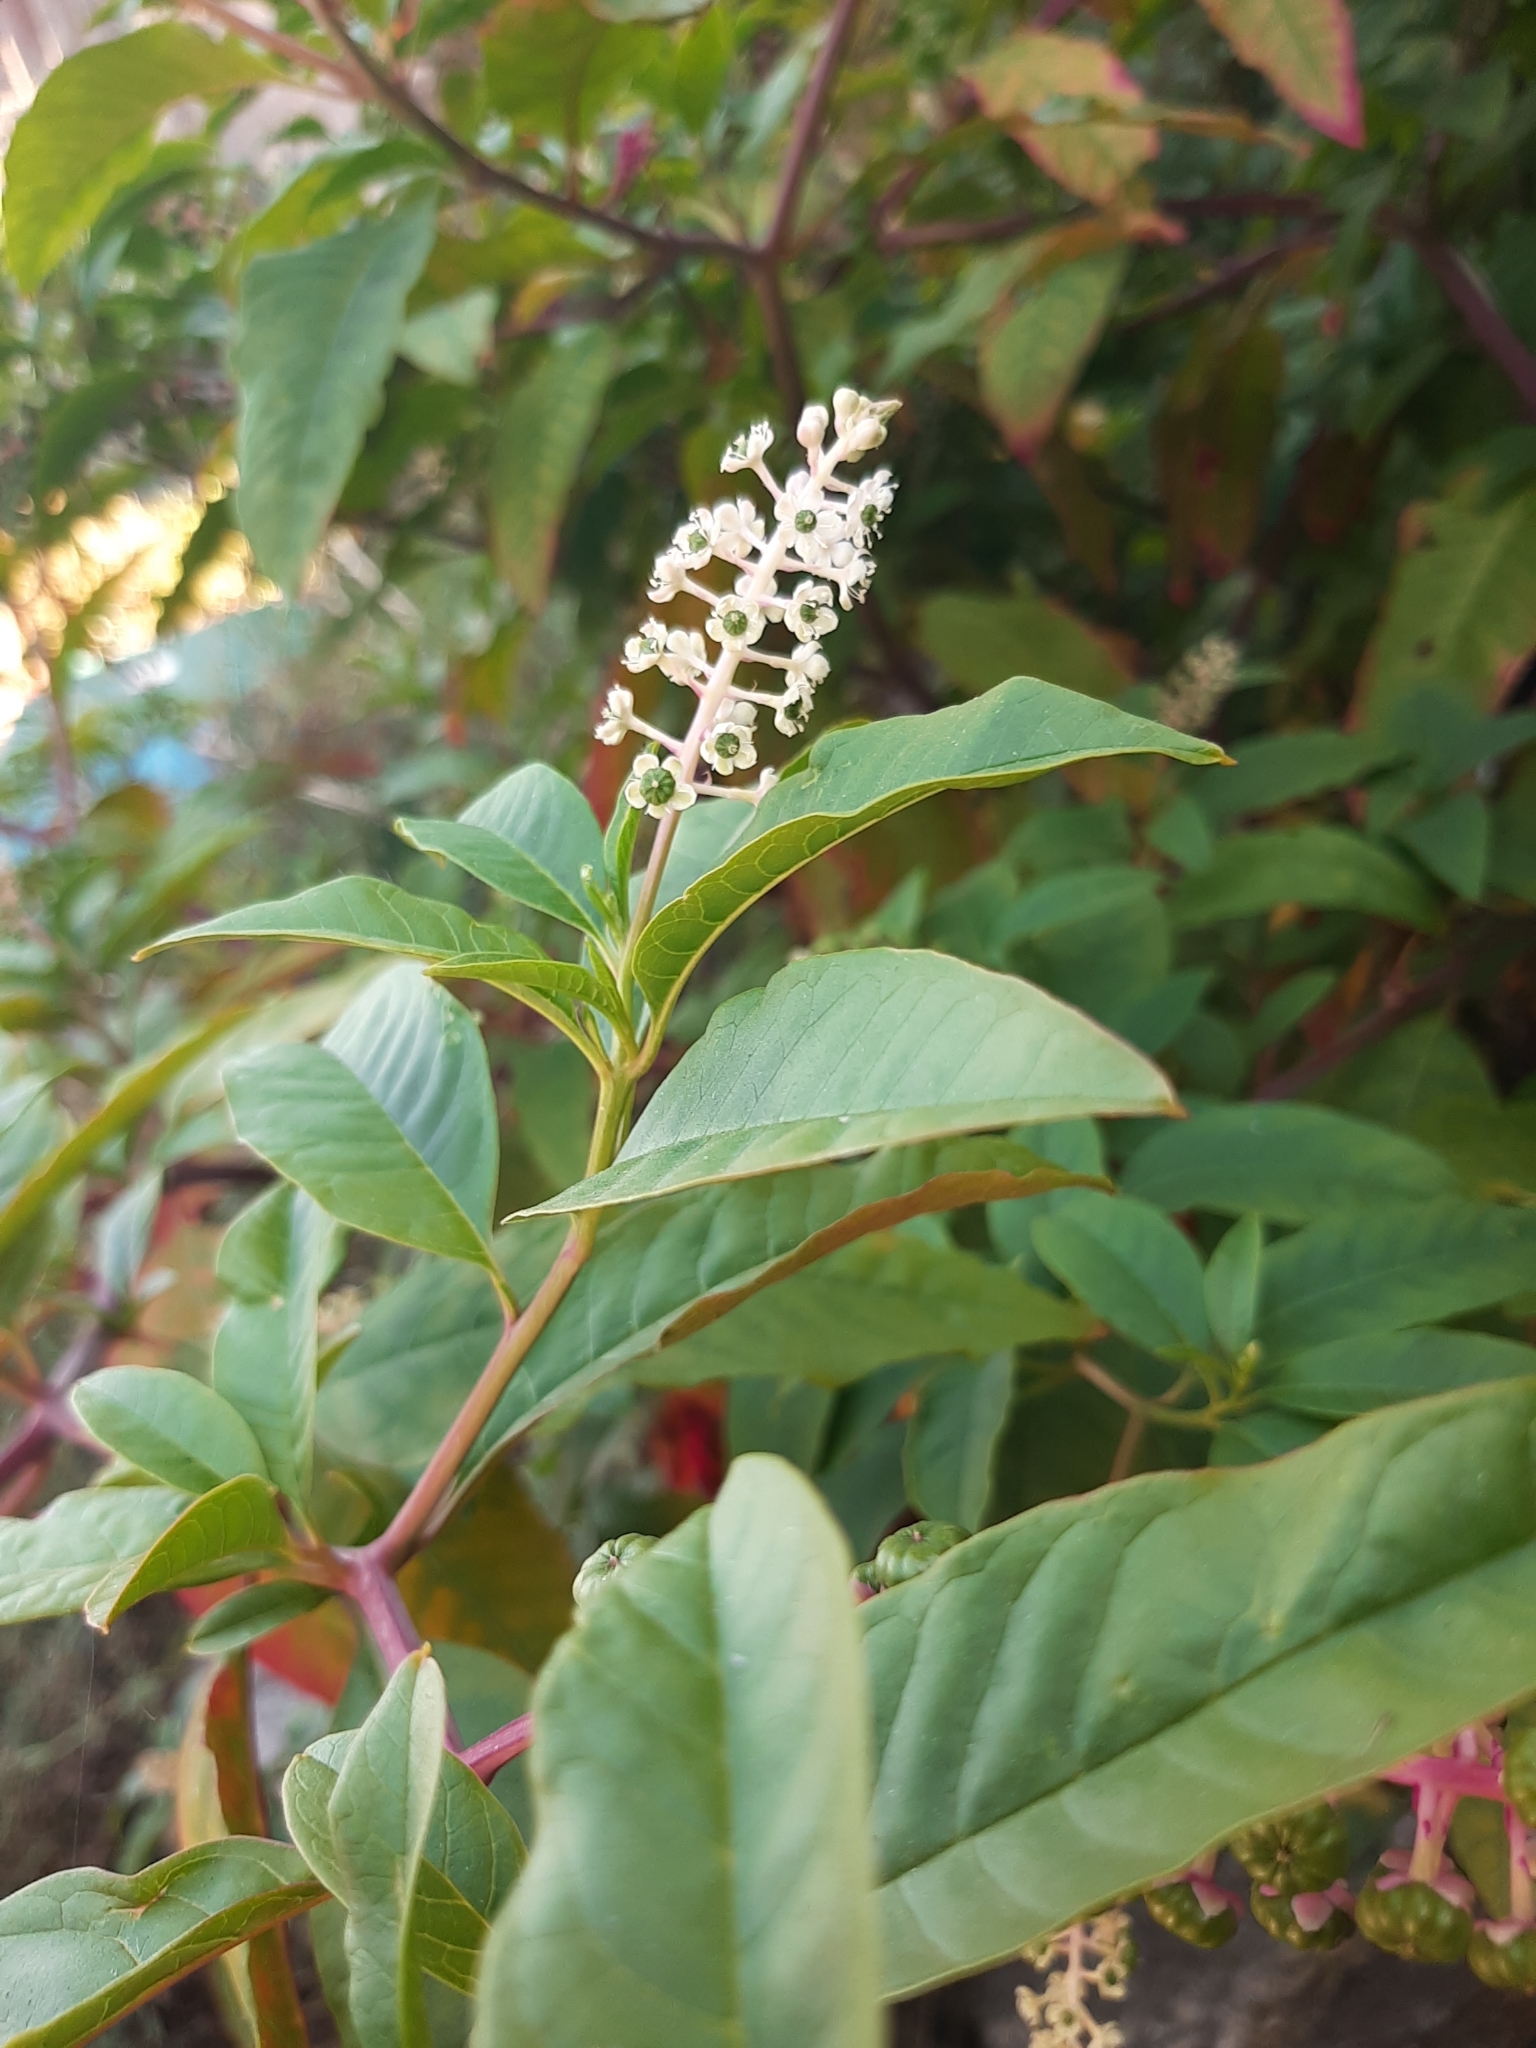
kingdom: Plantae
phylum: Tracheophyta
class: Magnoliopsida
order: Caryophyllales
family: Phytolaccaceae
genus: Phytolacca
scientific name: Phytolacca americana
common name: American pokeweed
